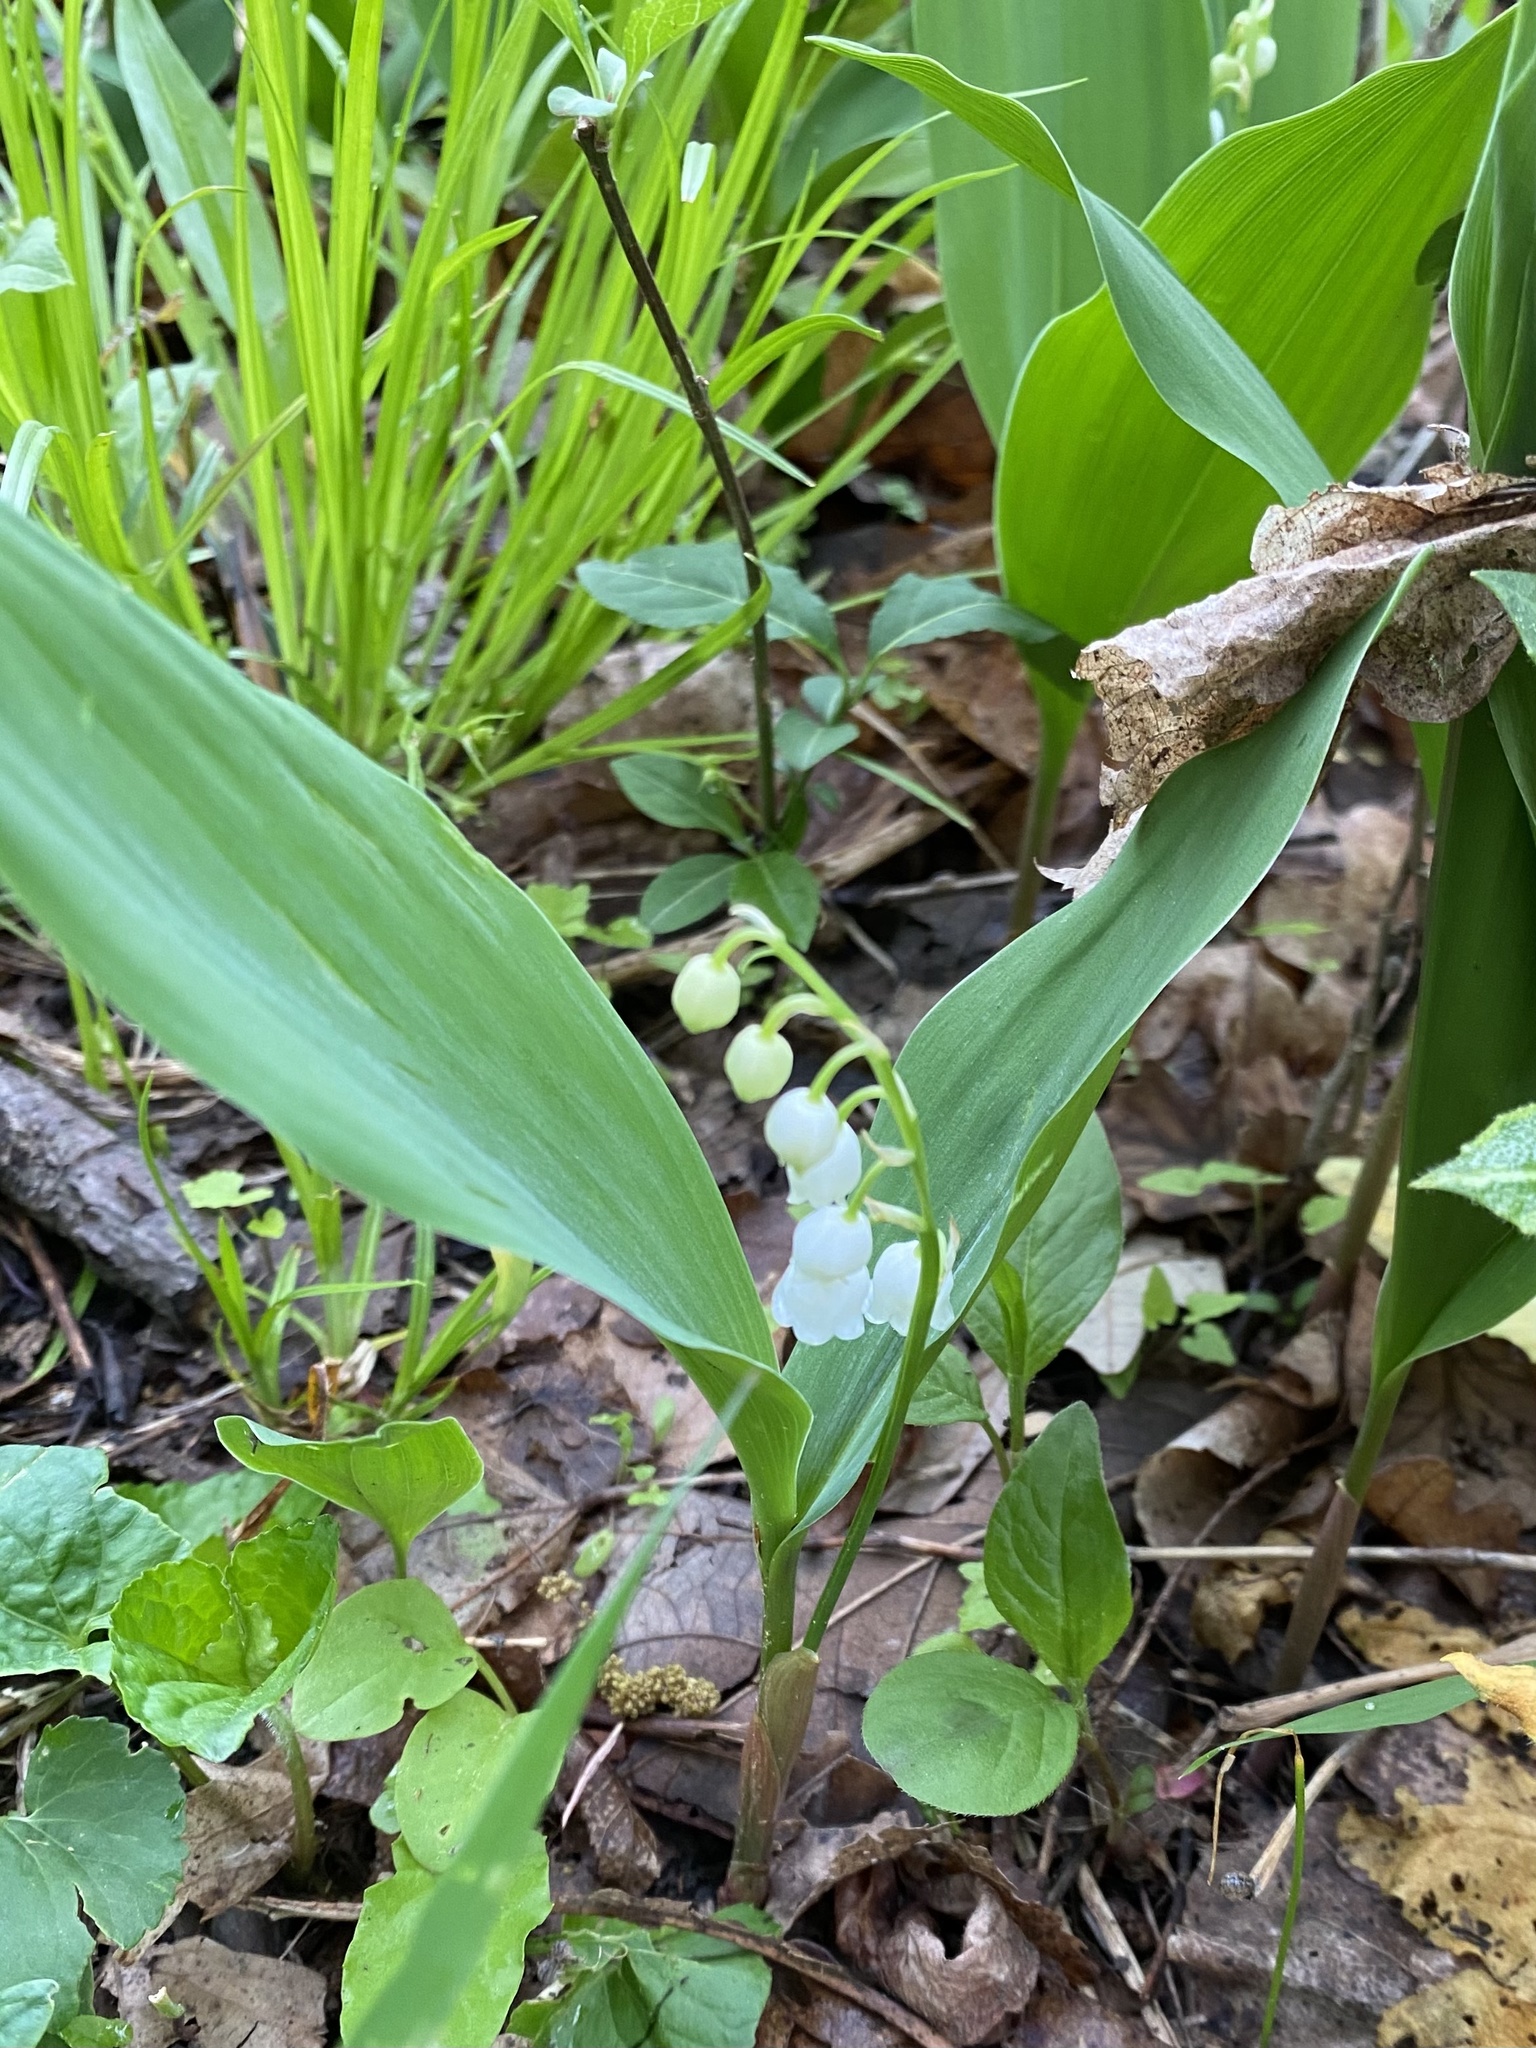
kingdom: Plantae
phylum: Tracheophyta
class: Liliopsida
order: Asparagales
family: Asparagaceae
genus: Convallaria
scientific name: Convallaria majalis
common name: Lily-of-the-valley
